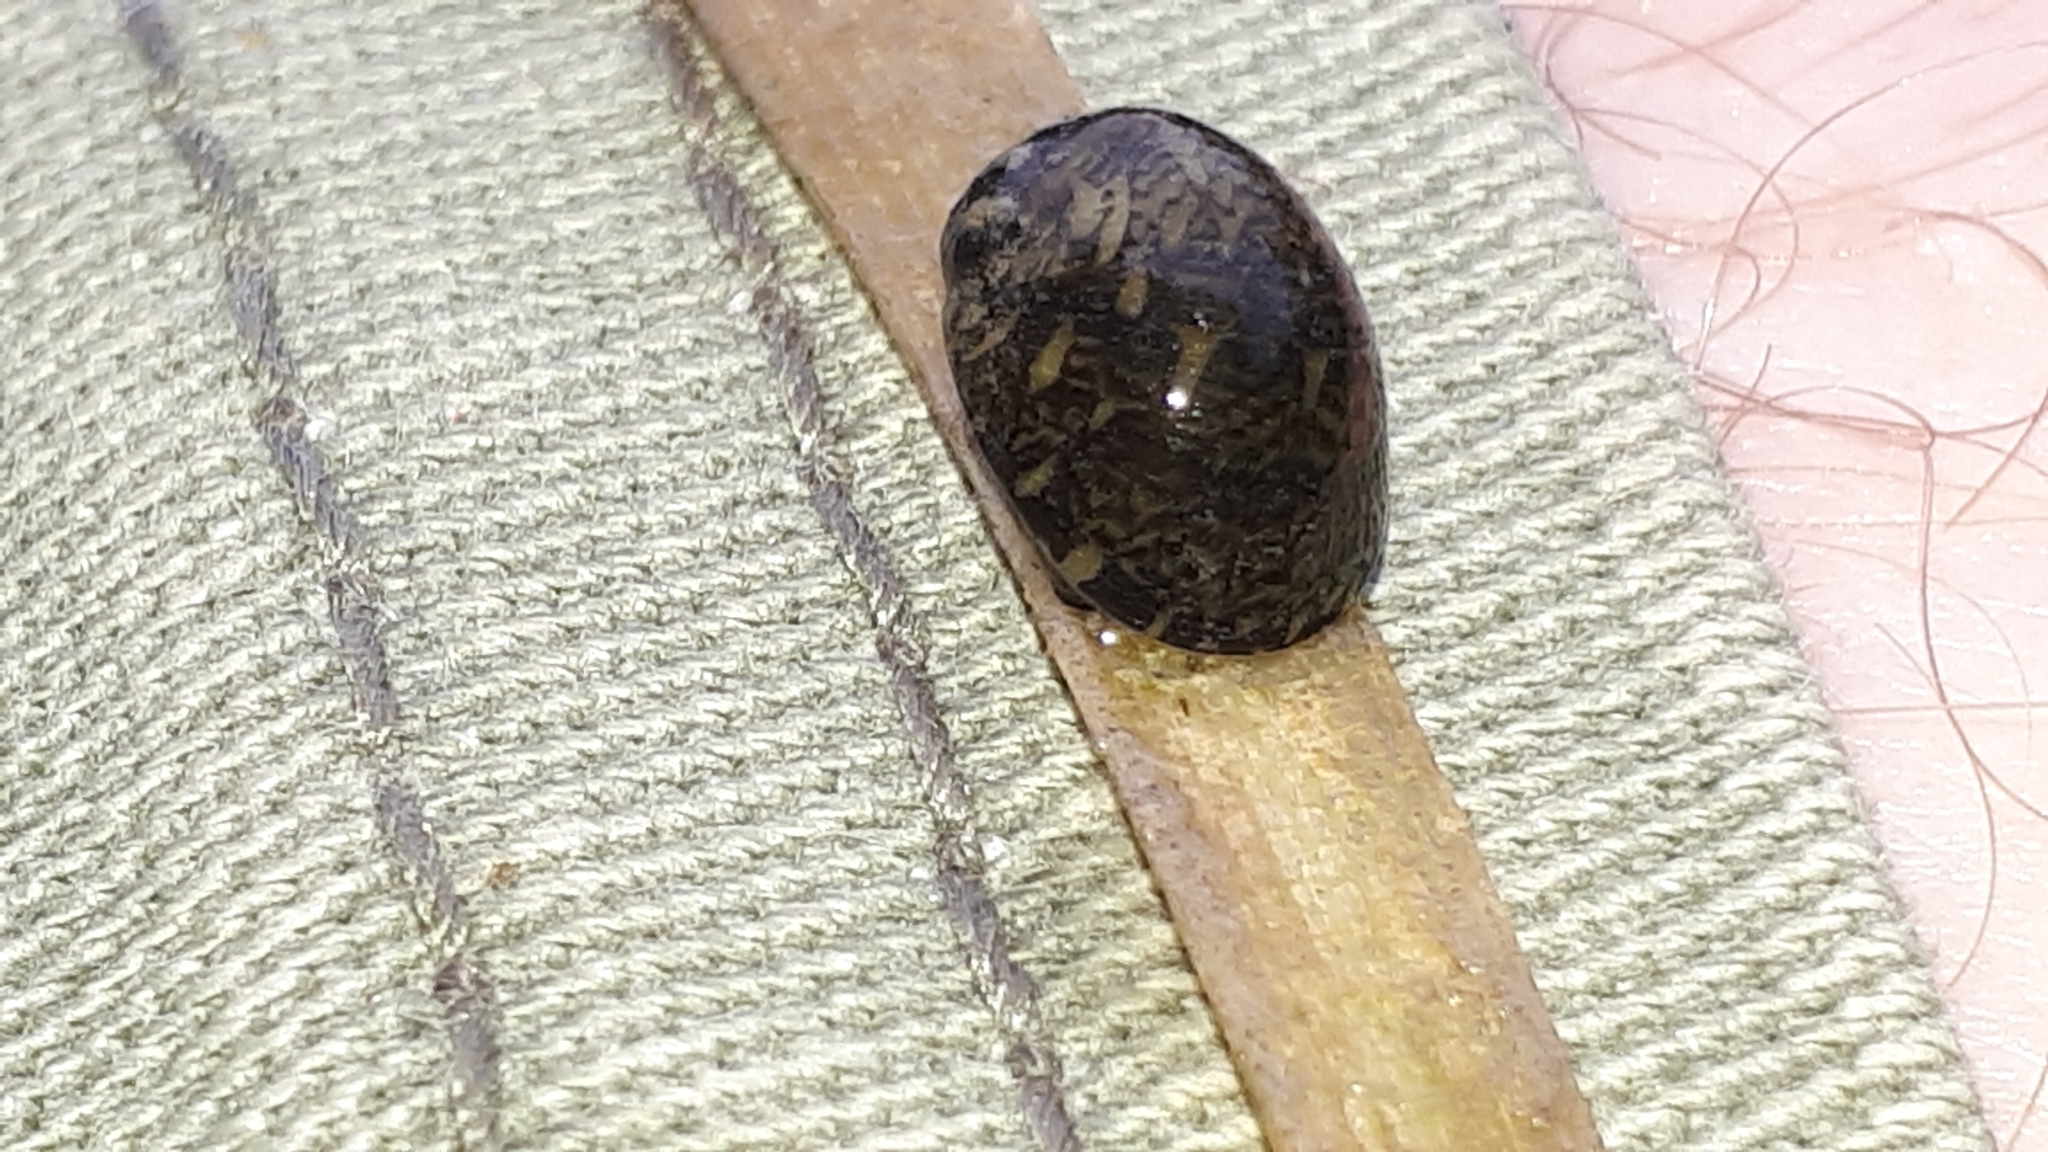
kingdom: Animalia
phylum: Mollusca
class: Gastropoda
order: Cycloneritida
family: Neritidae
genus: Theodoxus
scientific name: Theodoxus fluviatilis
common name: River nerite
